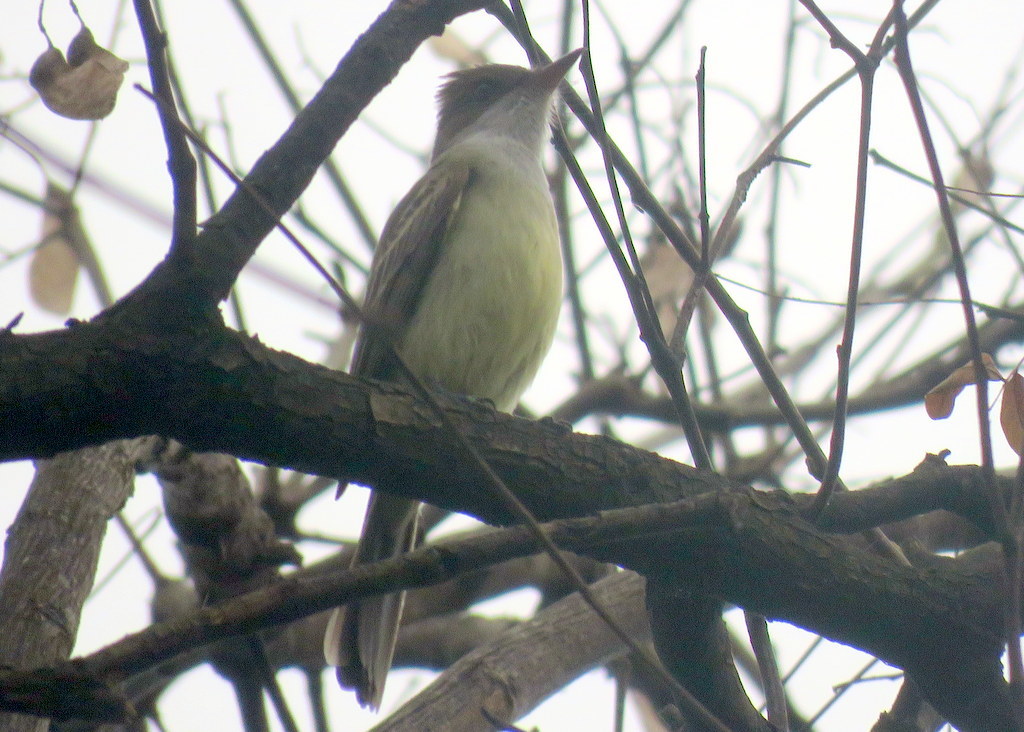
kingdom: Animalia
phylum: Chordata
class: Aves
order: Passeriformes
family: Tyrannidae
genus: Myiarchus
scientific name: Myiarchus swainsoni
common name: Swainson's flycatcher
